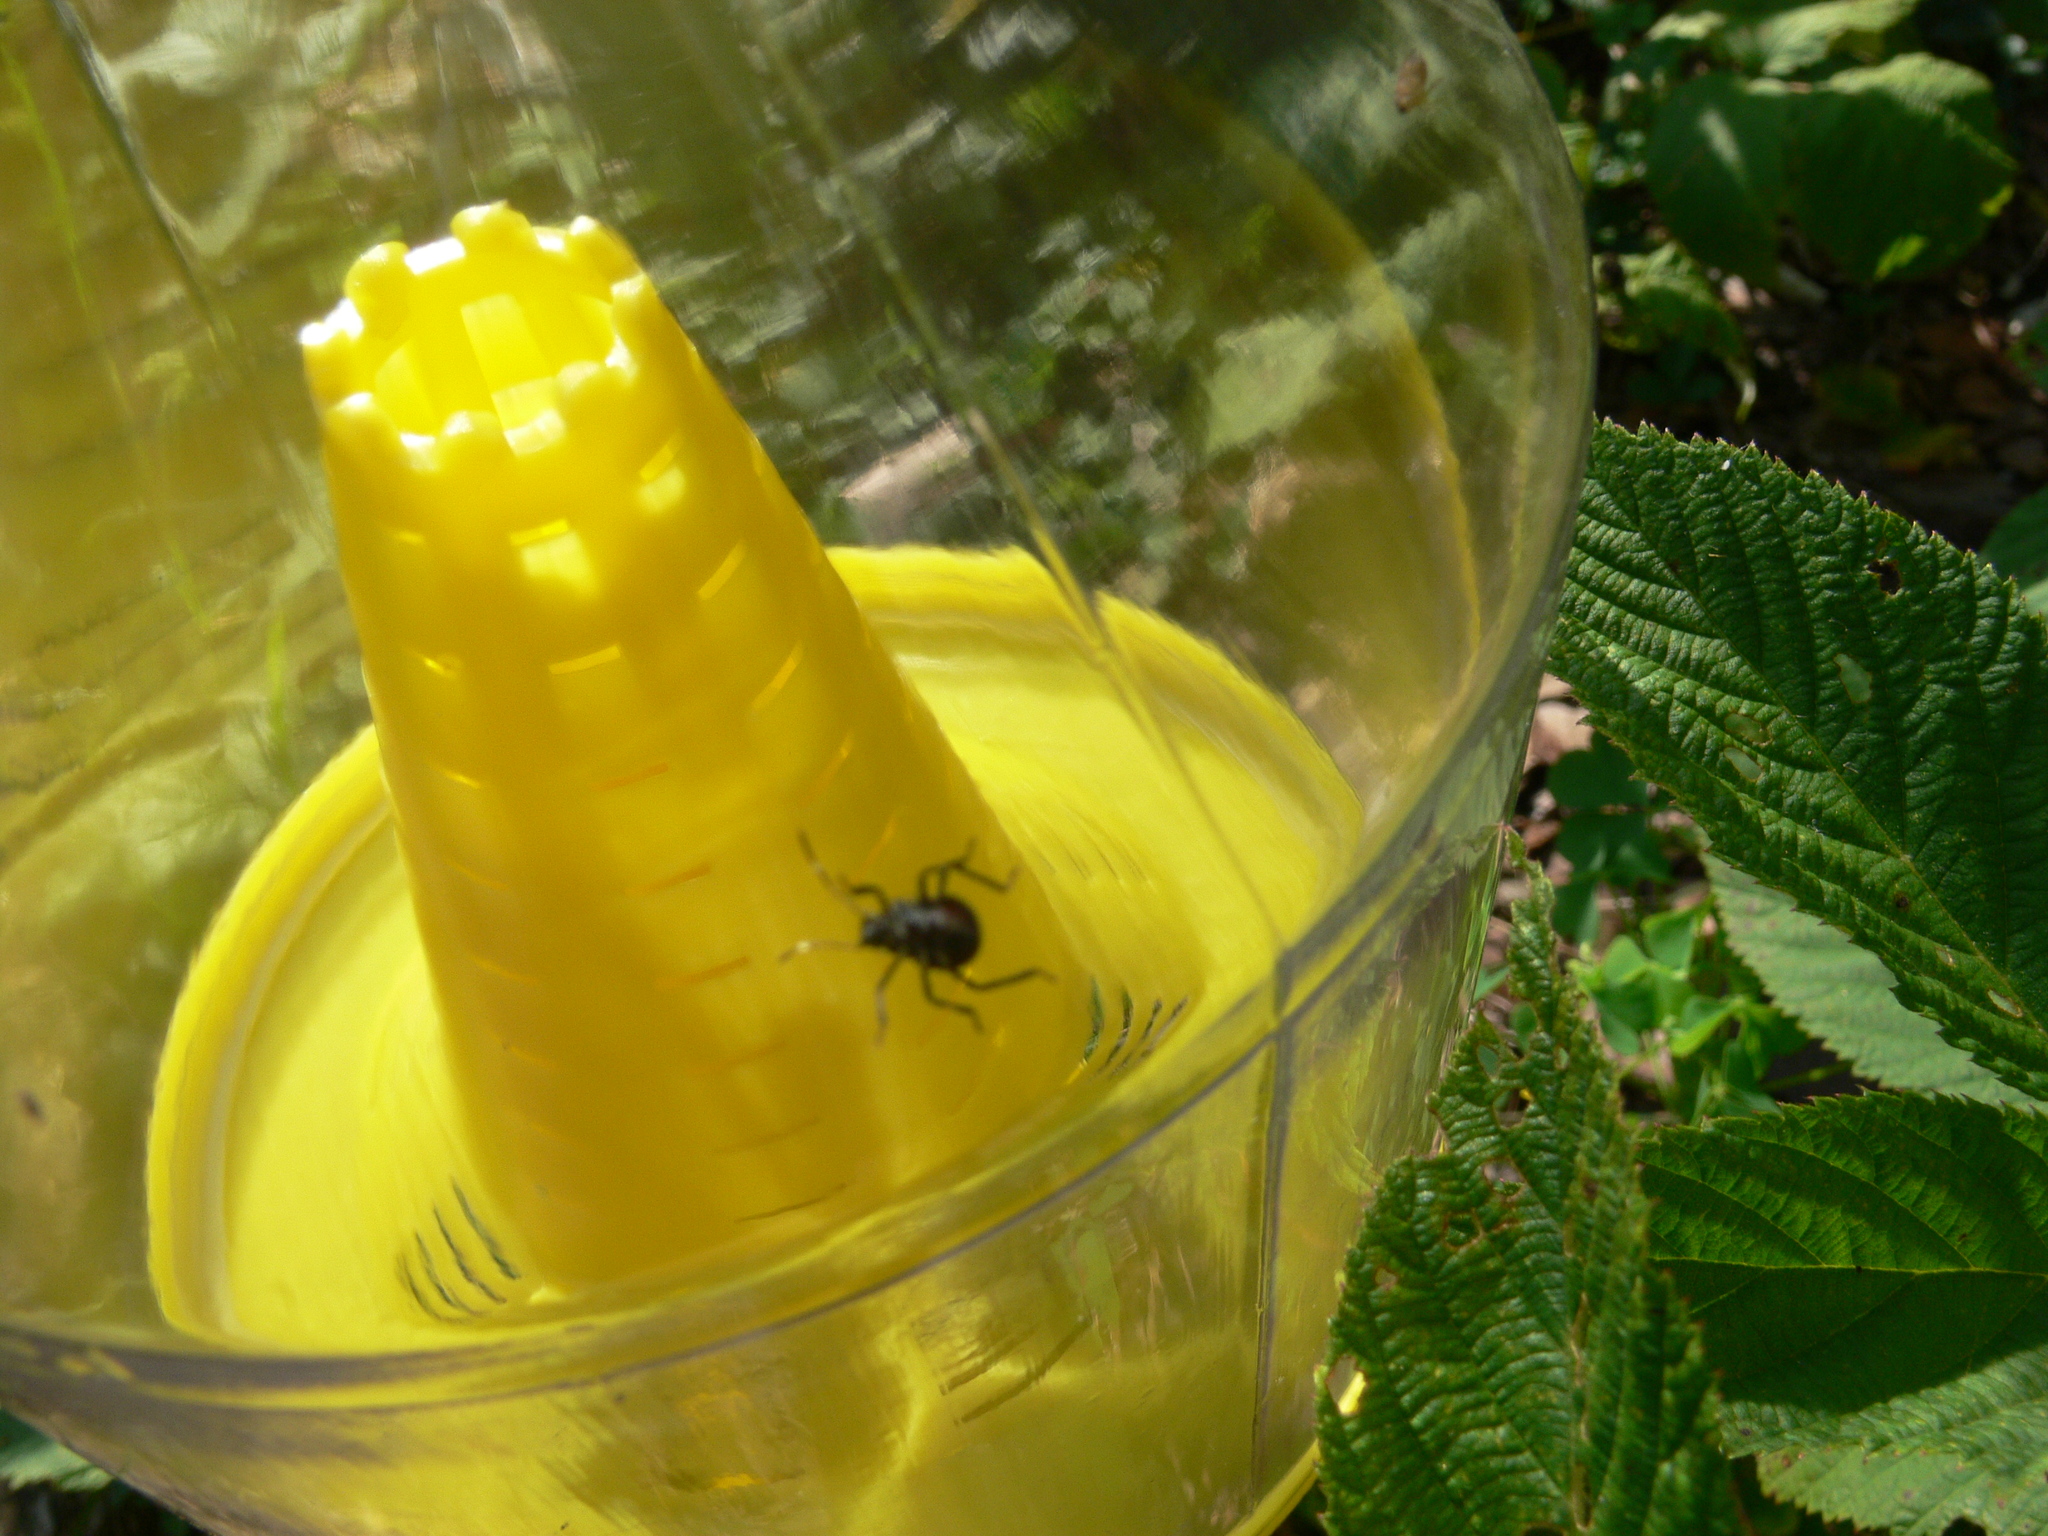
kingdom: Animalia
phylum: Arthropoda
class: Insecta
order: Hemiptera
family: Pentatomidae
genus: Halyomorpha
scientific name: Halyomorpha halys
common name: Brown marmorated stink bug
